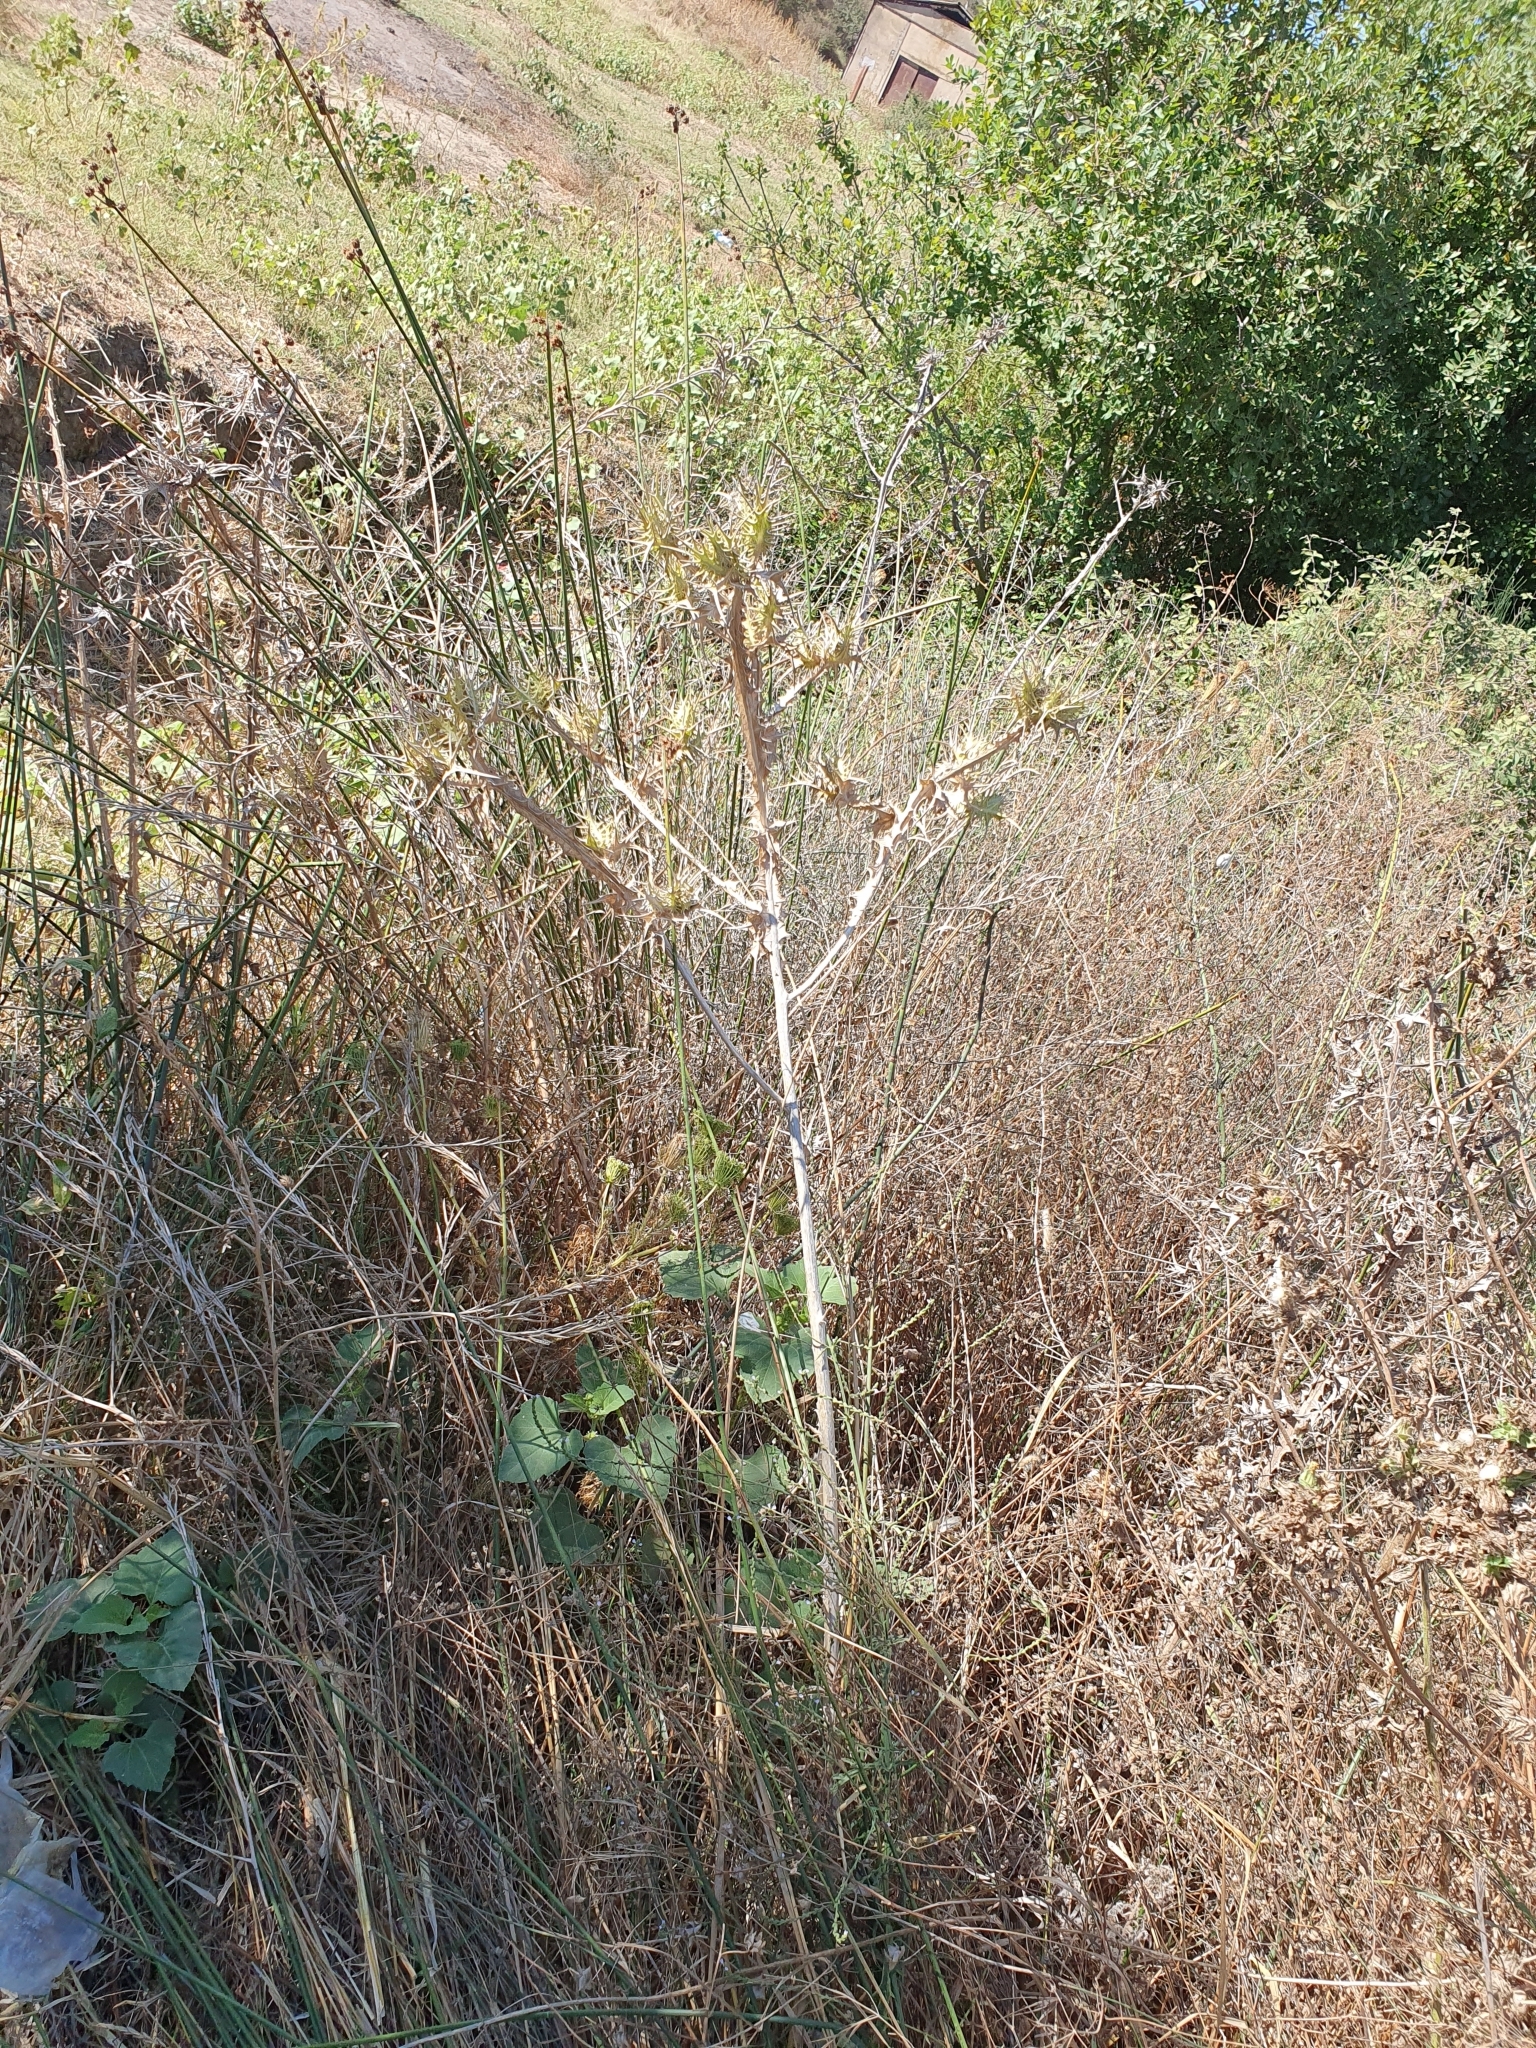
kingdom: Plantae
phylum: Tracheophyta
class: Magnoliopsida
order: Asterales
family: Asteraceae
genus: Scolymus
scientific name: Scolymus maculatus
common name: Spotted thistle
